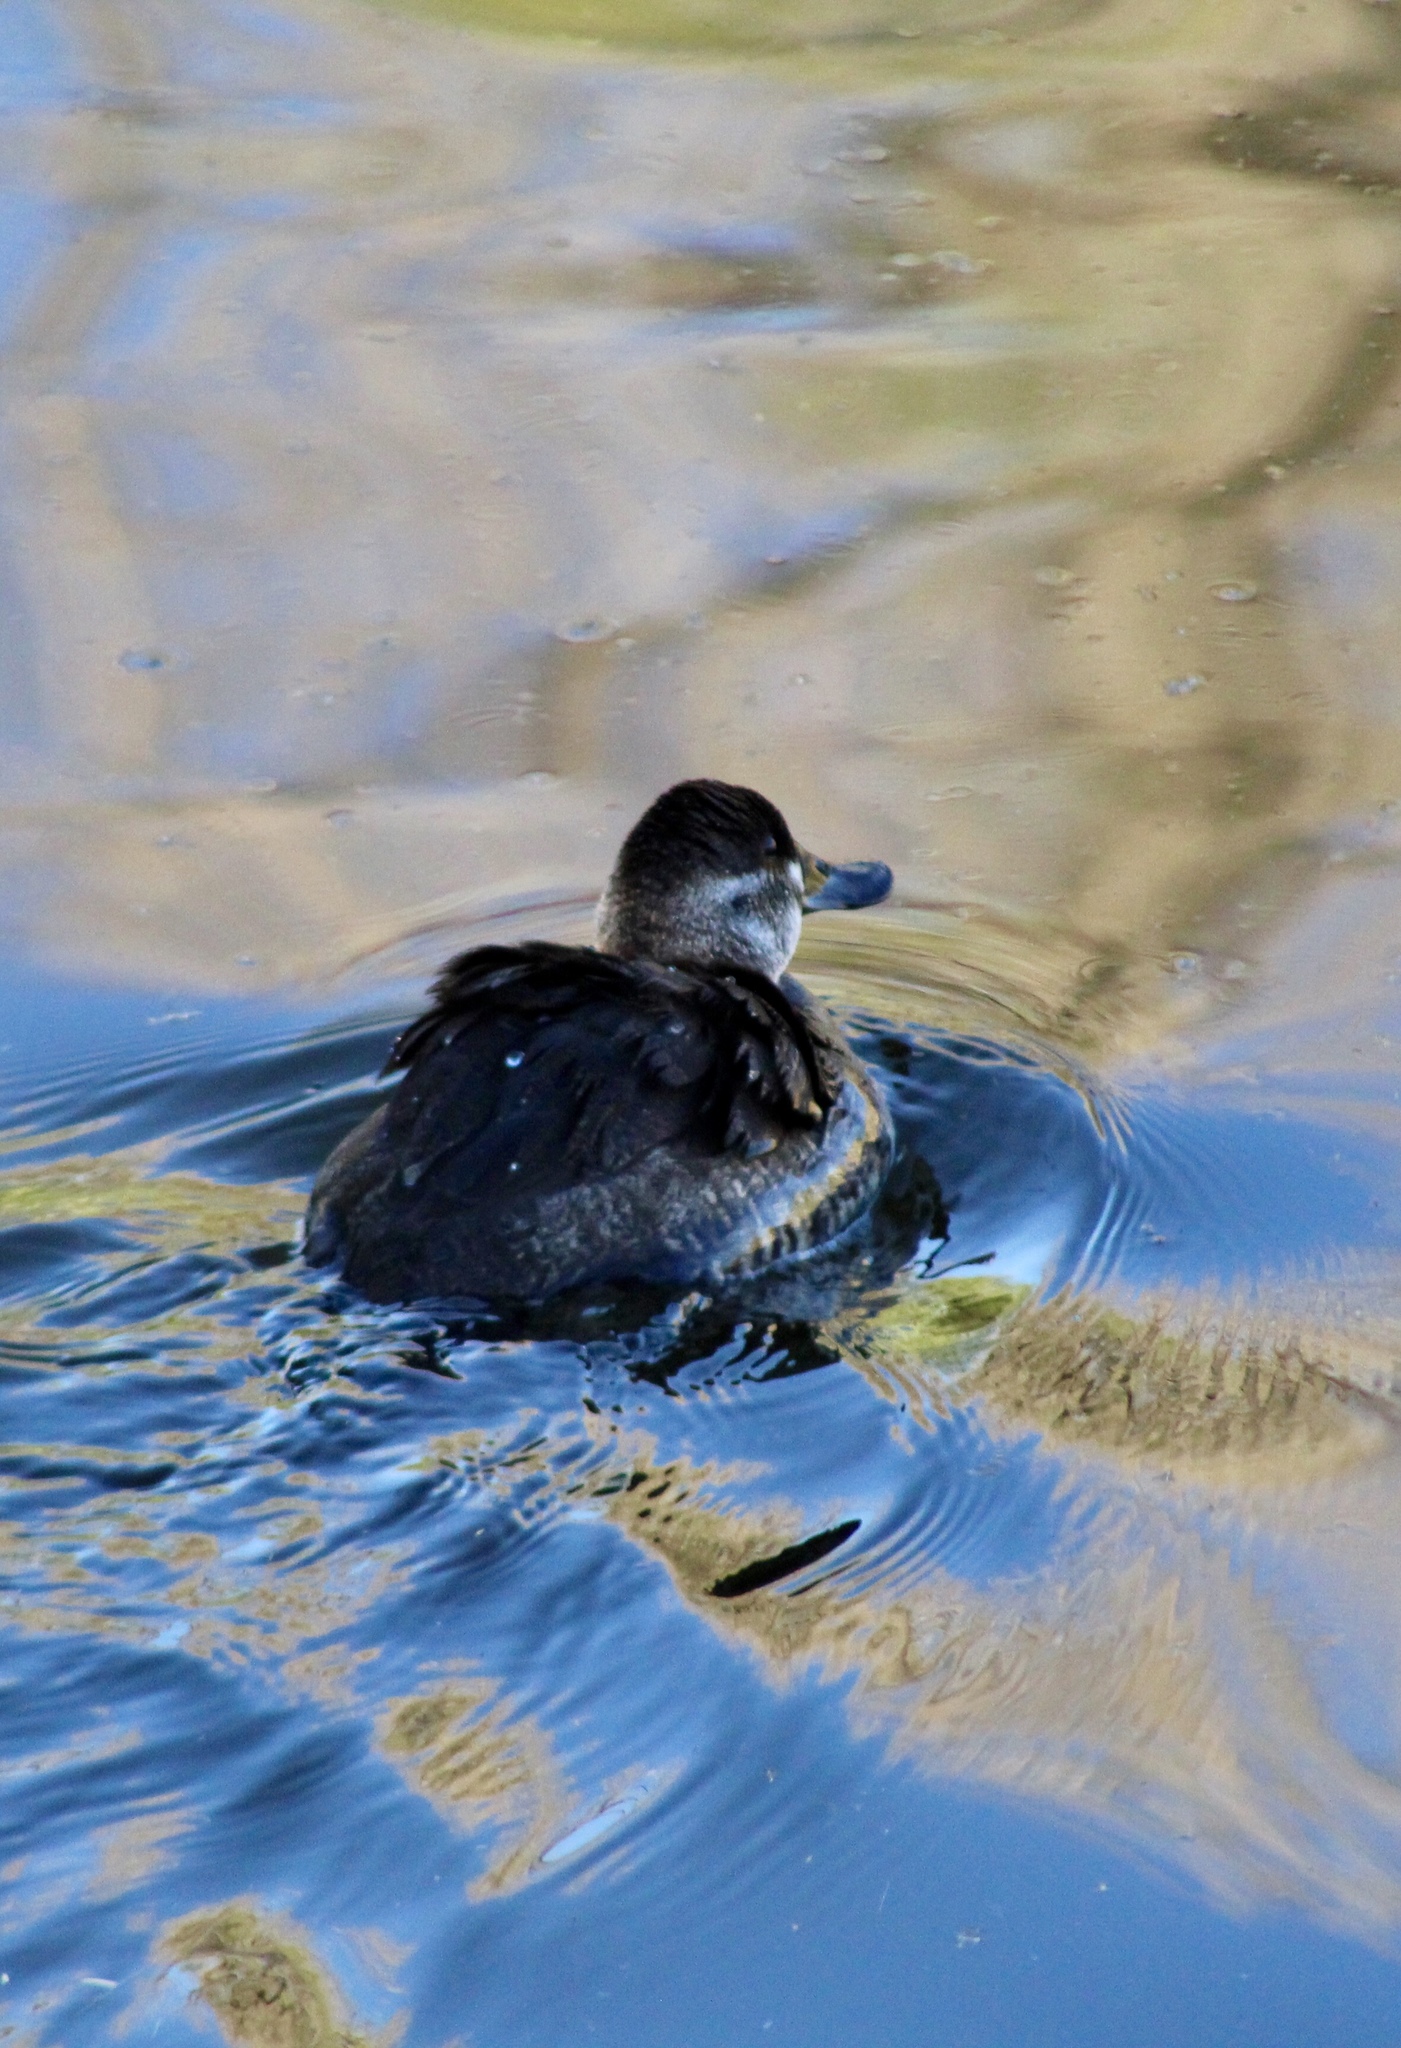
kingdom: Animalia
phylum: Chordata
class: Aves
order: Anseriformes
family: Anatidae
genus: Oxyura
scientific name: Oxyura jamaicensis
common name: Ruddy duck
